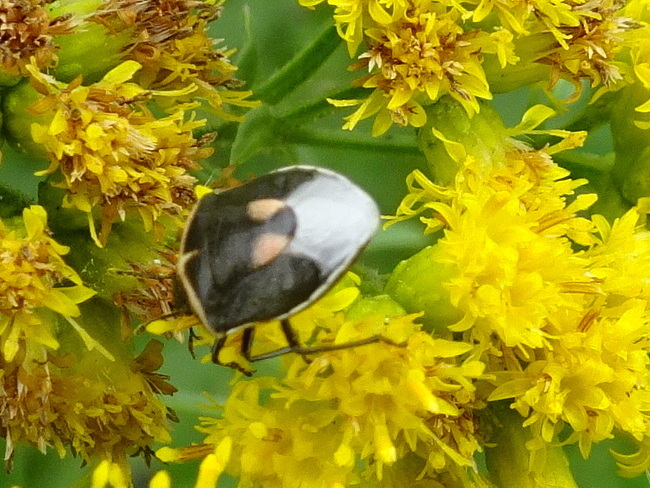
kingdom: Animalia
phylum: Arthropoda
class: Insecta
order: Hemiptera
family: Pentatomidae
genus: Cosmopepla
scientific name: Cosmopepla lintneriana
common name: Twice-stabbed stink bug
